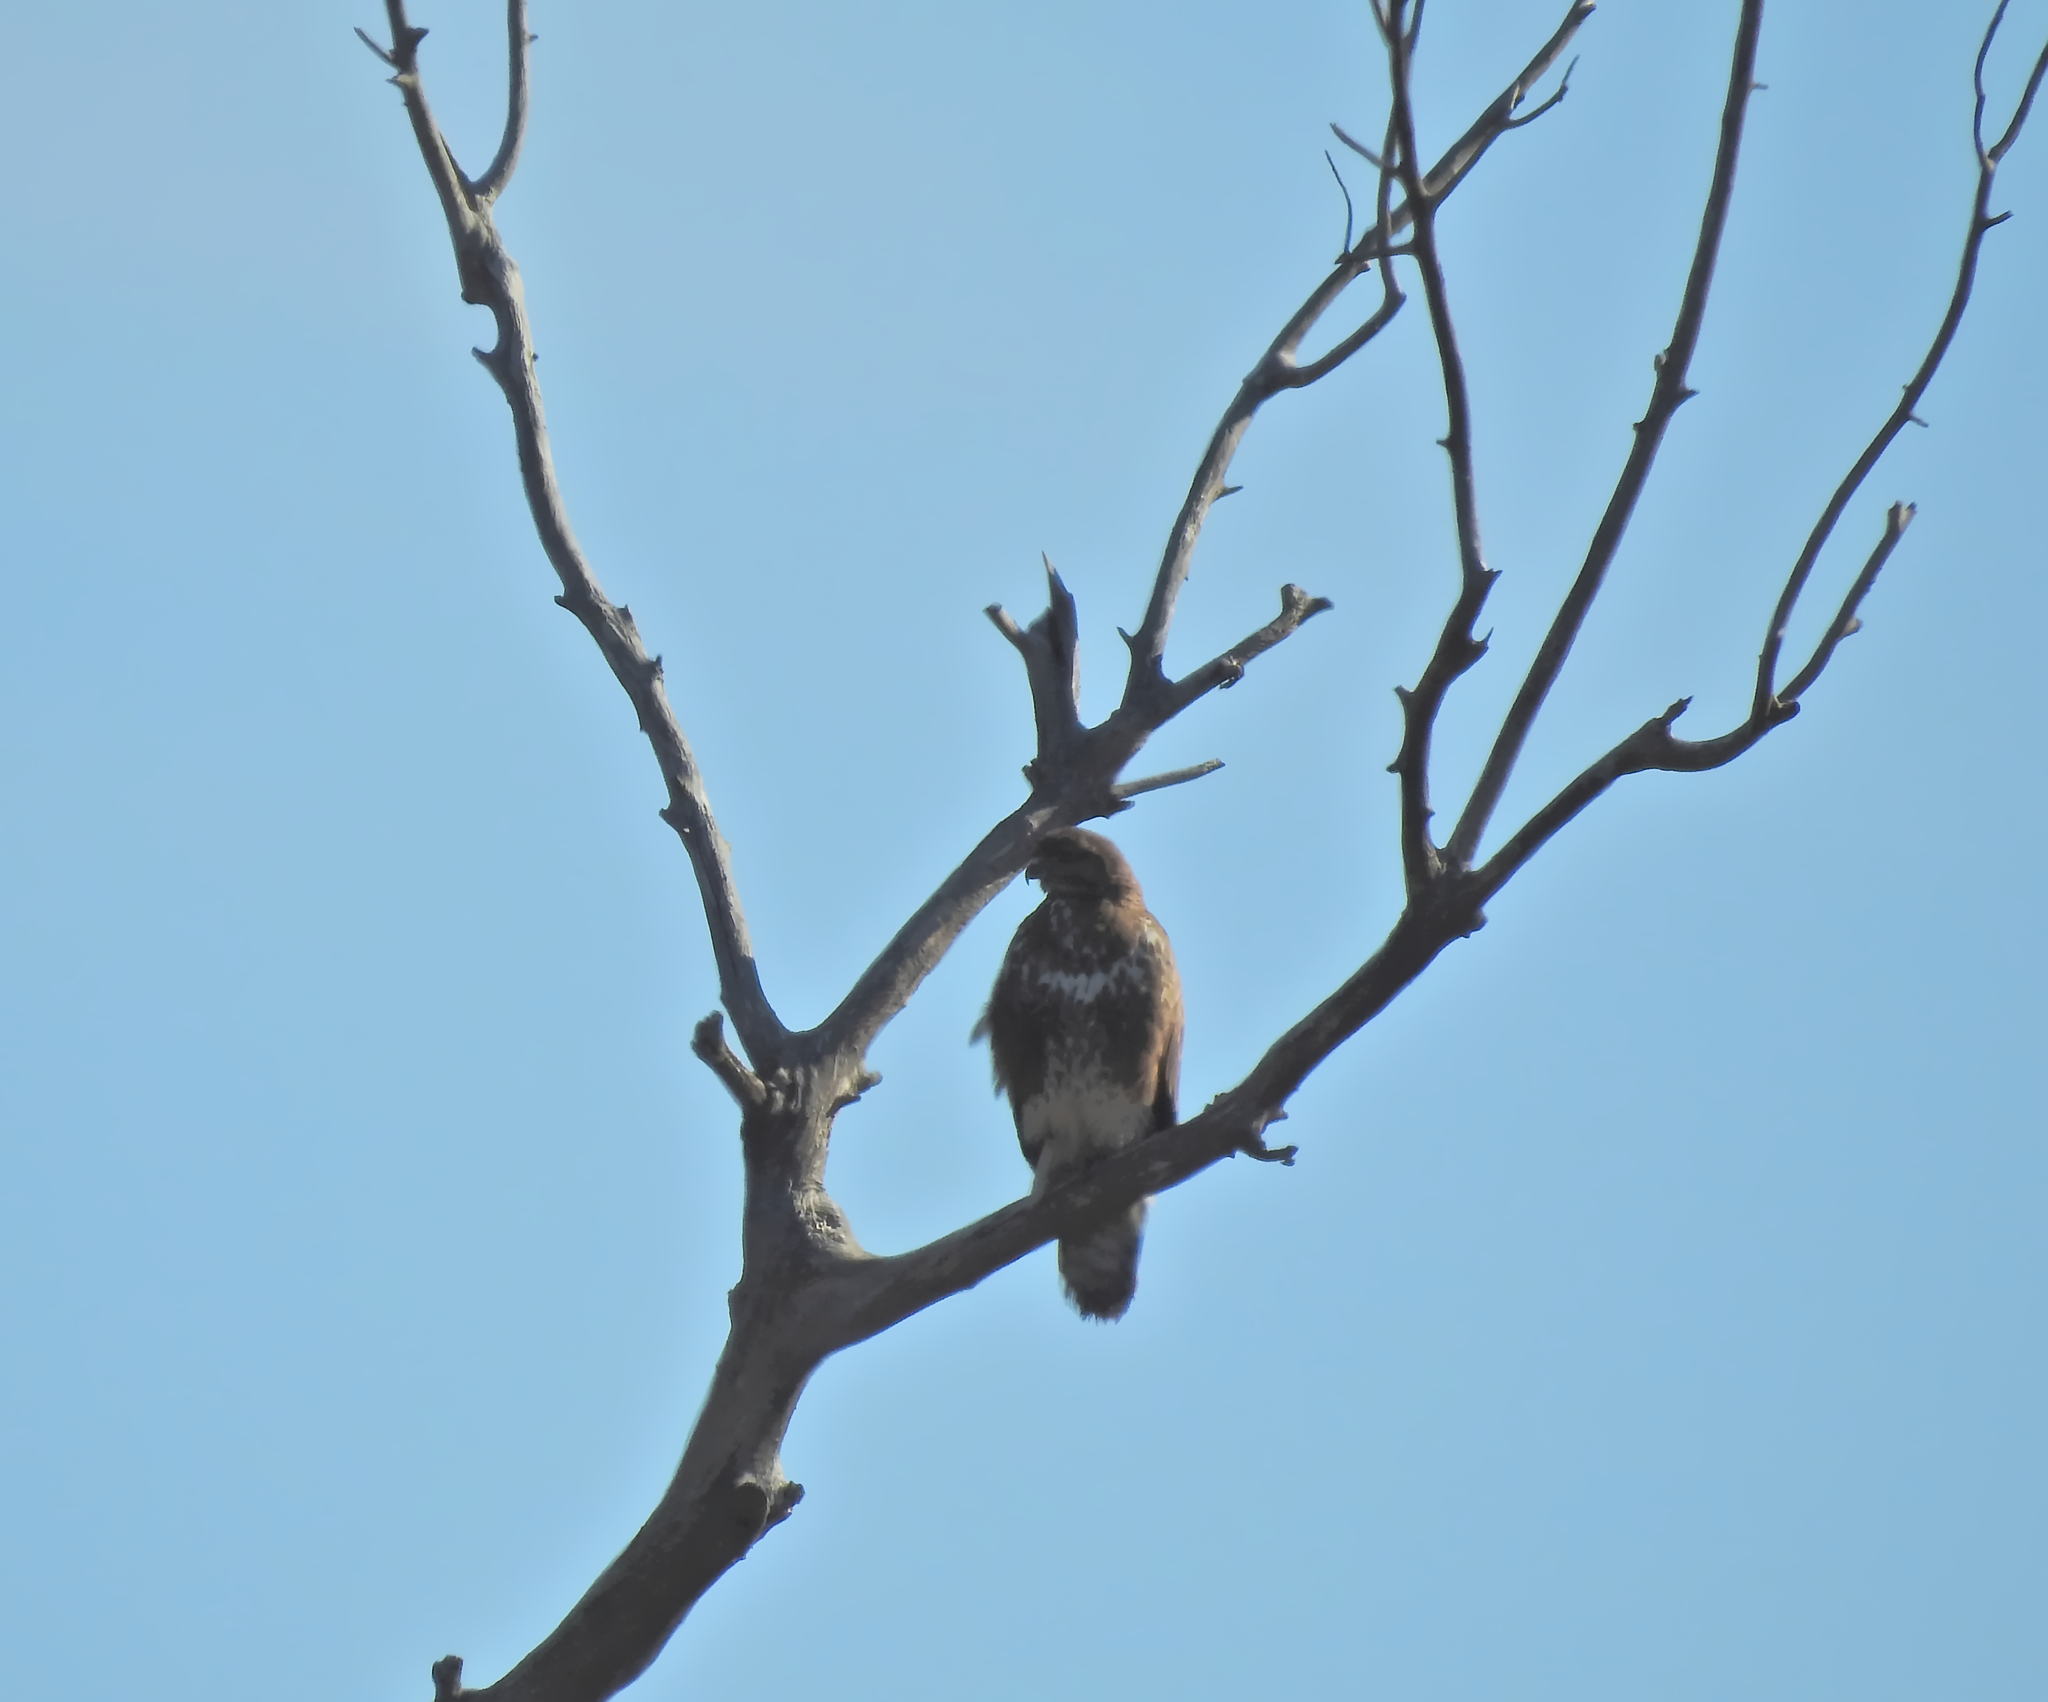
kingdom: Animalia
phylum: Chordata
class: Aves
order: Accipitriformes
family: Accipitridae
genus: Buteo
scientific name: Buteo buteo
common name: Common buzzard
